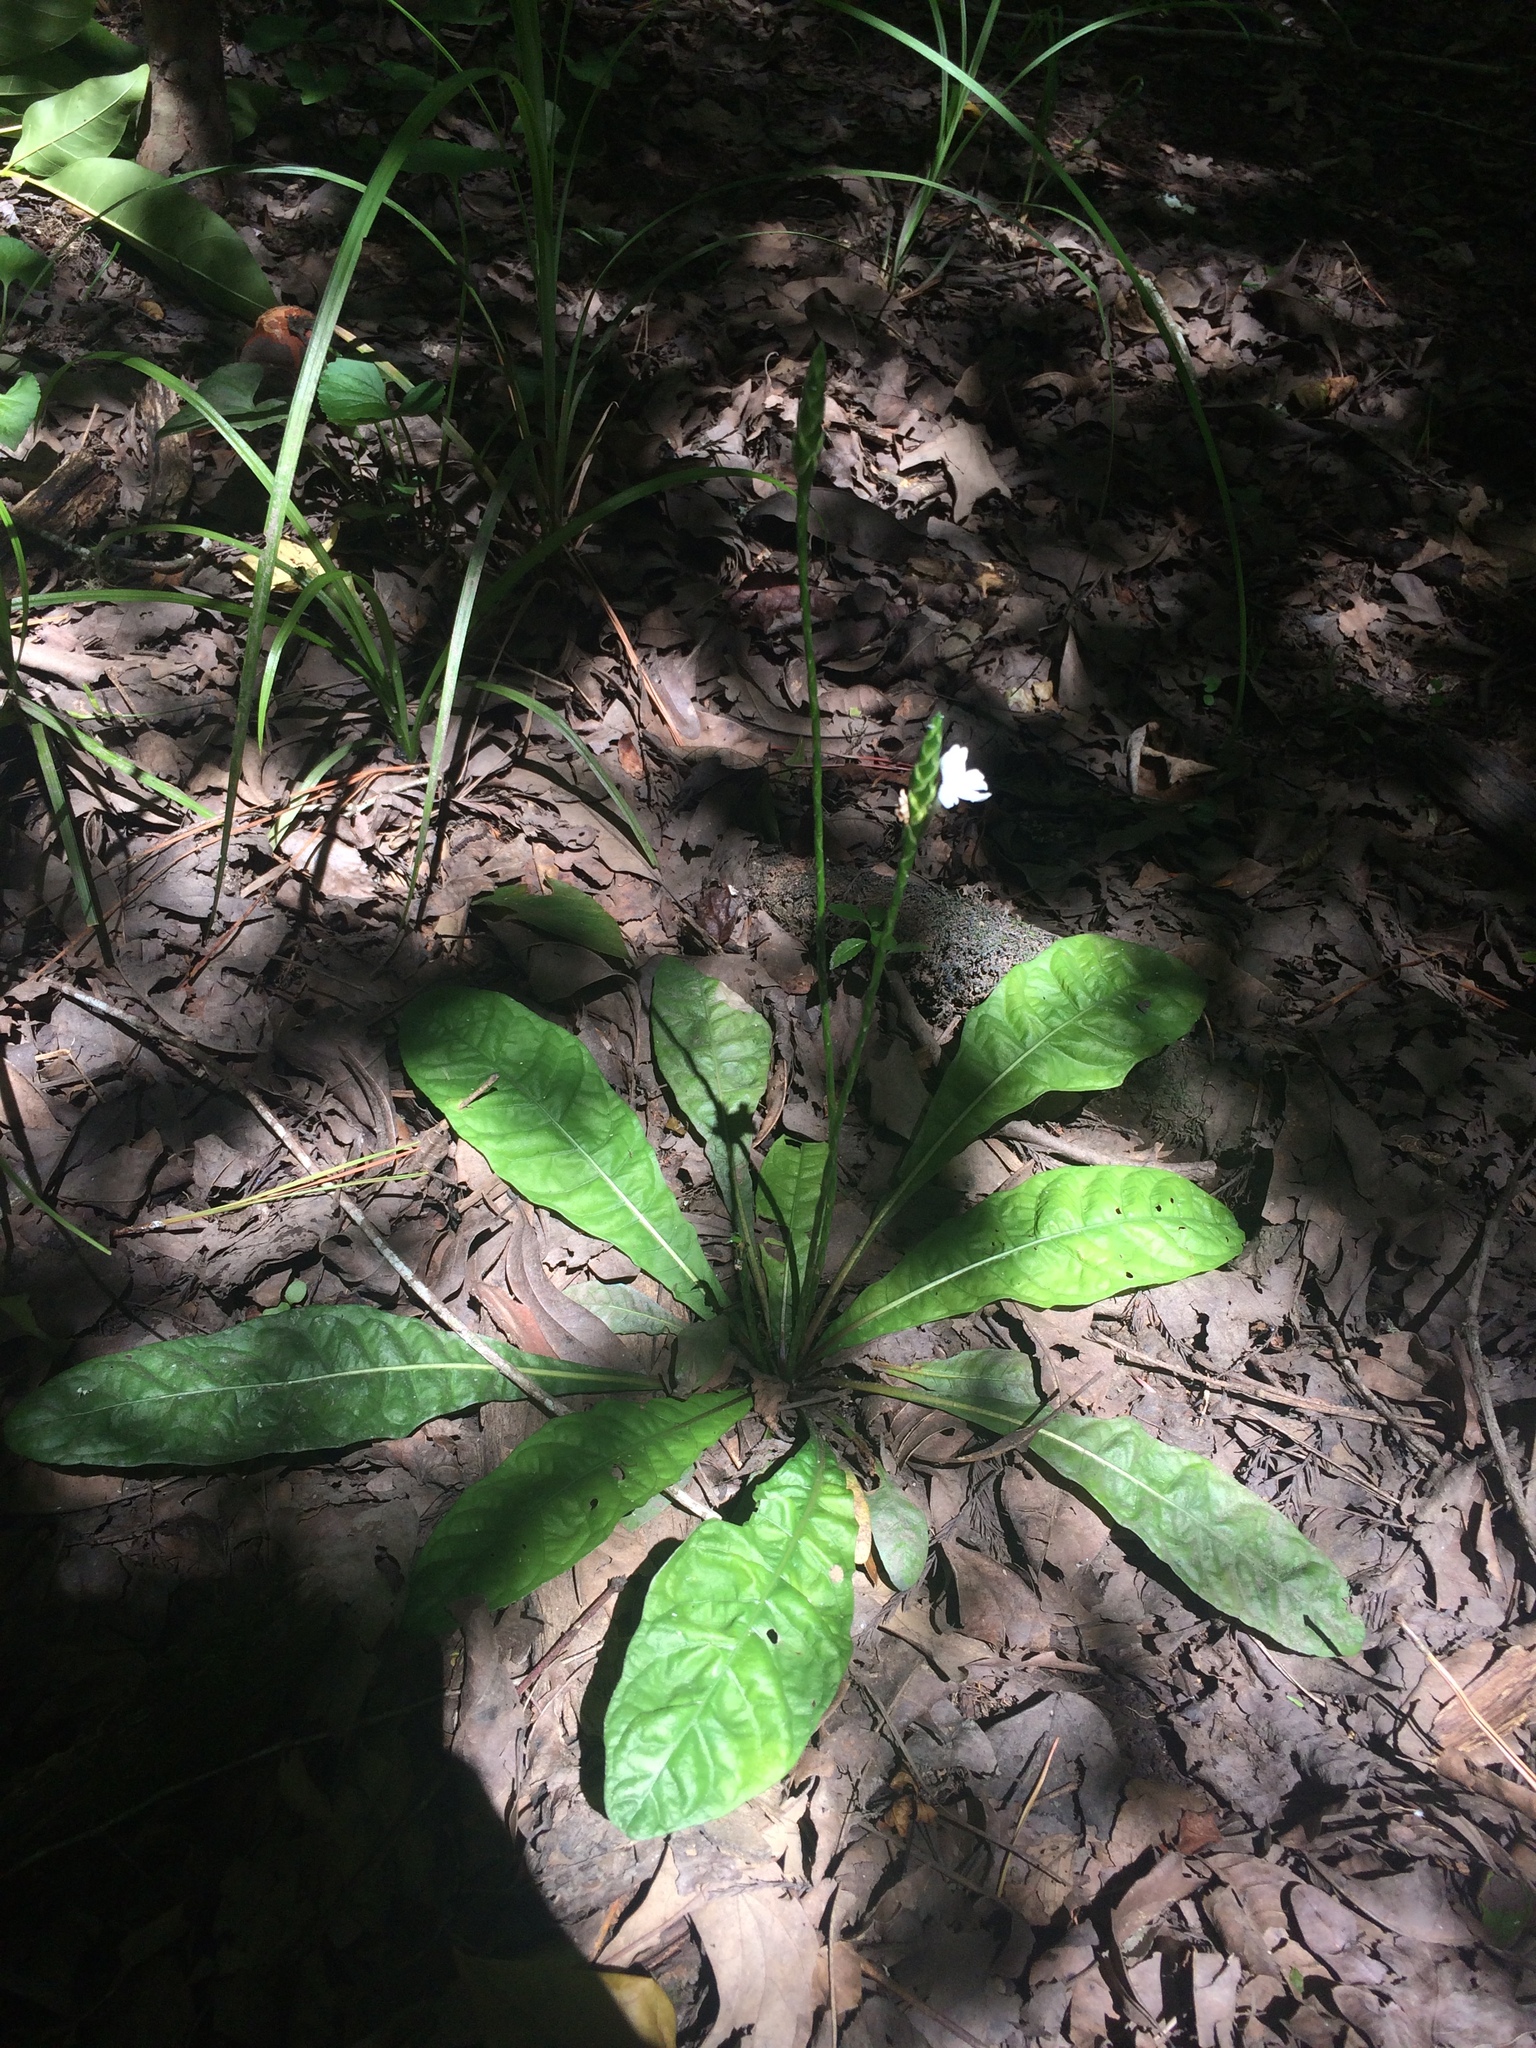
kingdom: Plantae
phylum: Tracheophyta
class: Magnoliopsida
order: Lamiales
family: Acanthaceae
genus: Elytraria
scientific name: Elytraria caroliniensis
